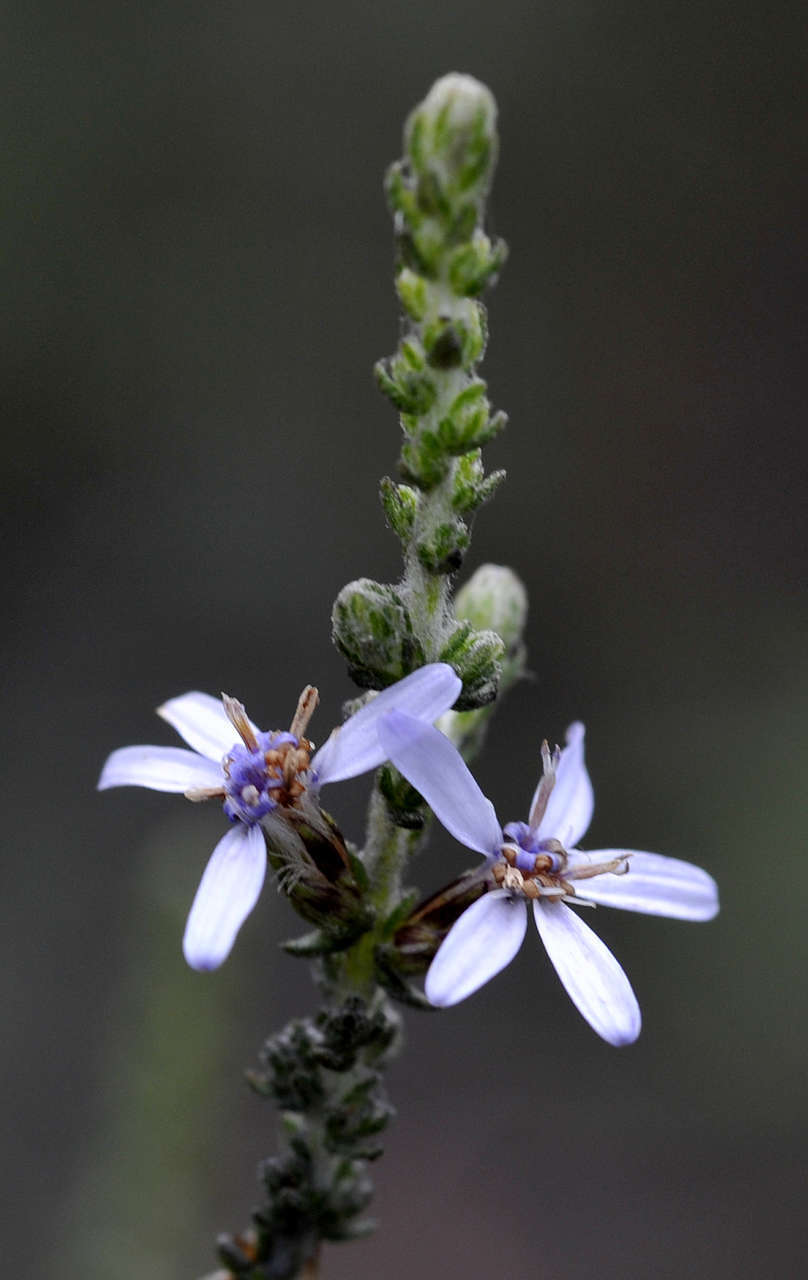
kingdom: Plantae
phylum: Tracheophyta
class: Magnoliopsida
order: Asterales
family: Asteraceae
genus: Olearia
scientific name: Olearia lanuginosa
